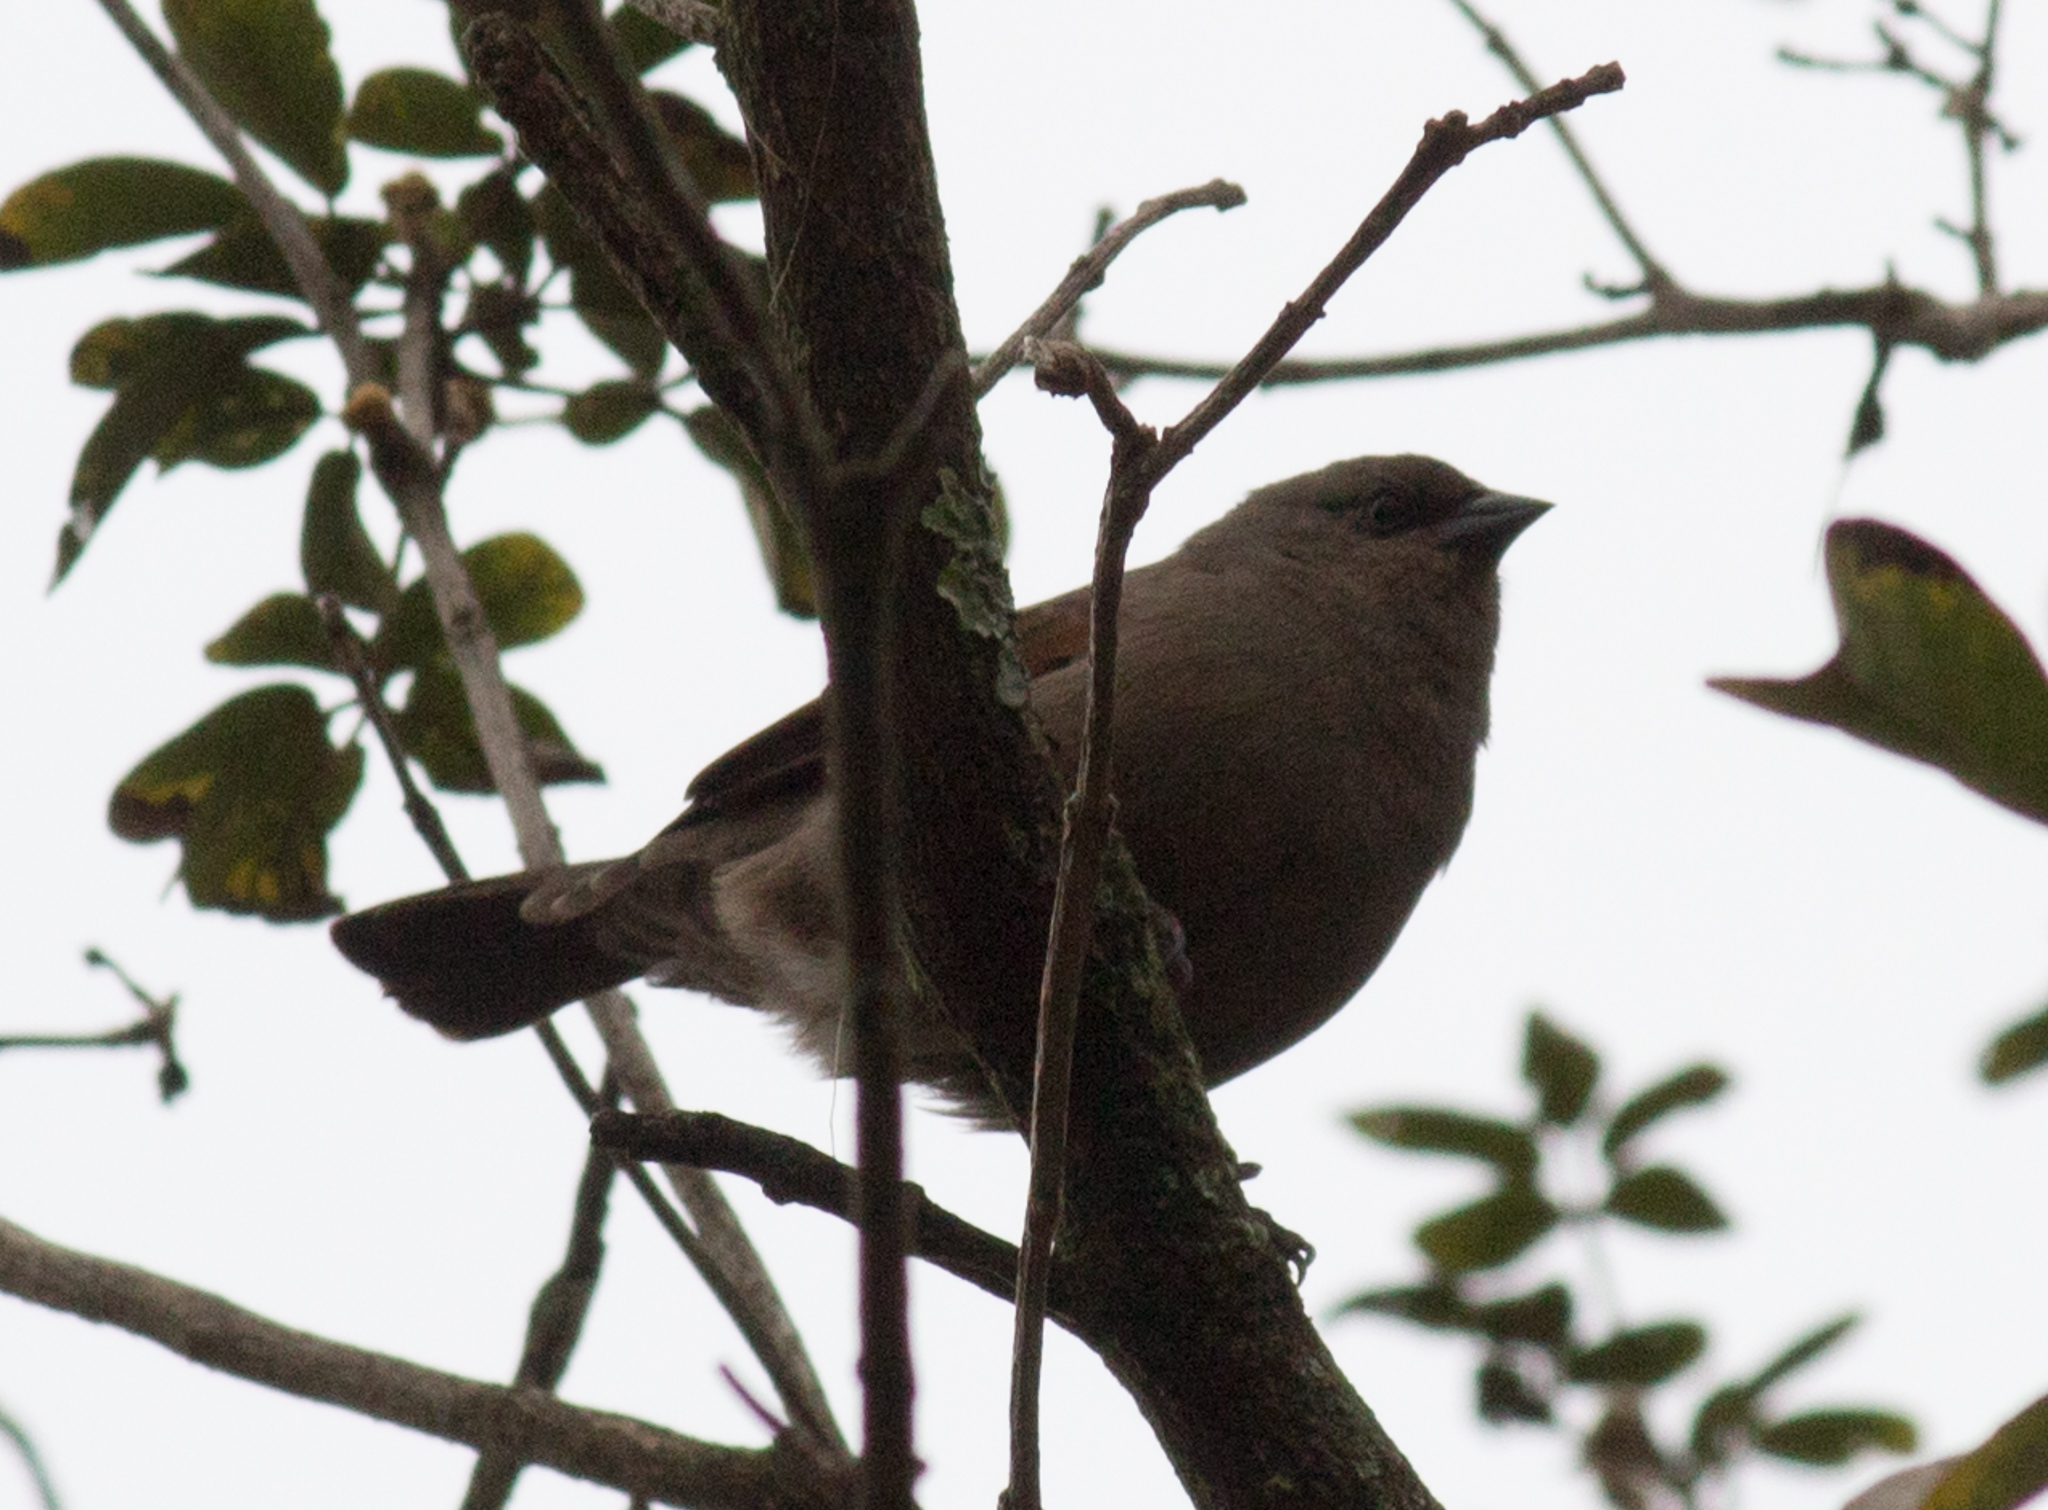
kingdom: Animalia
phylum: Chordata
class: Aves
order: Passeriformes
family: Icteridae
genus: Agelaioides
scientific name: Agelaioides badius
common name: Baywing
